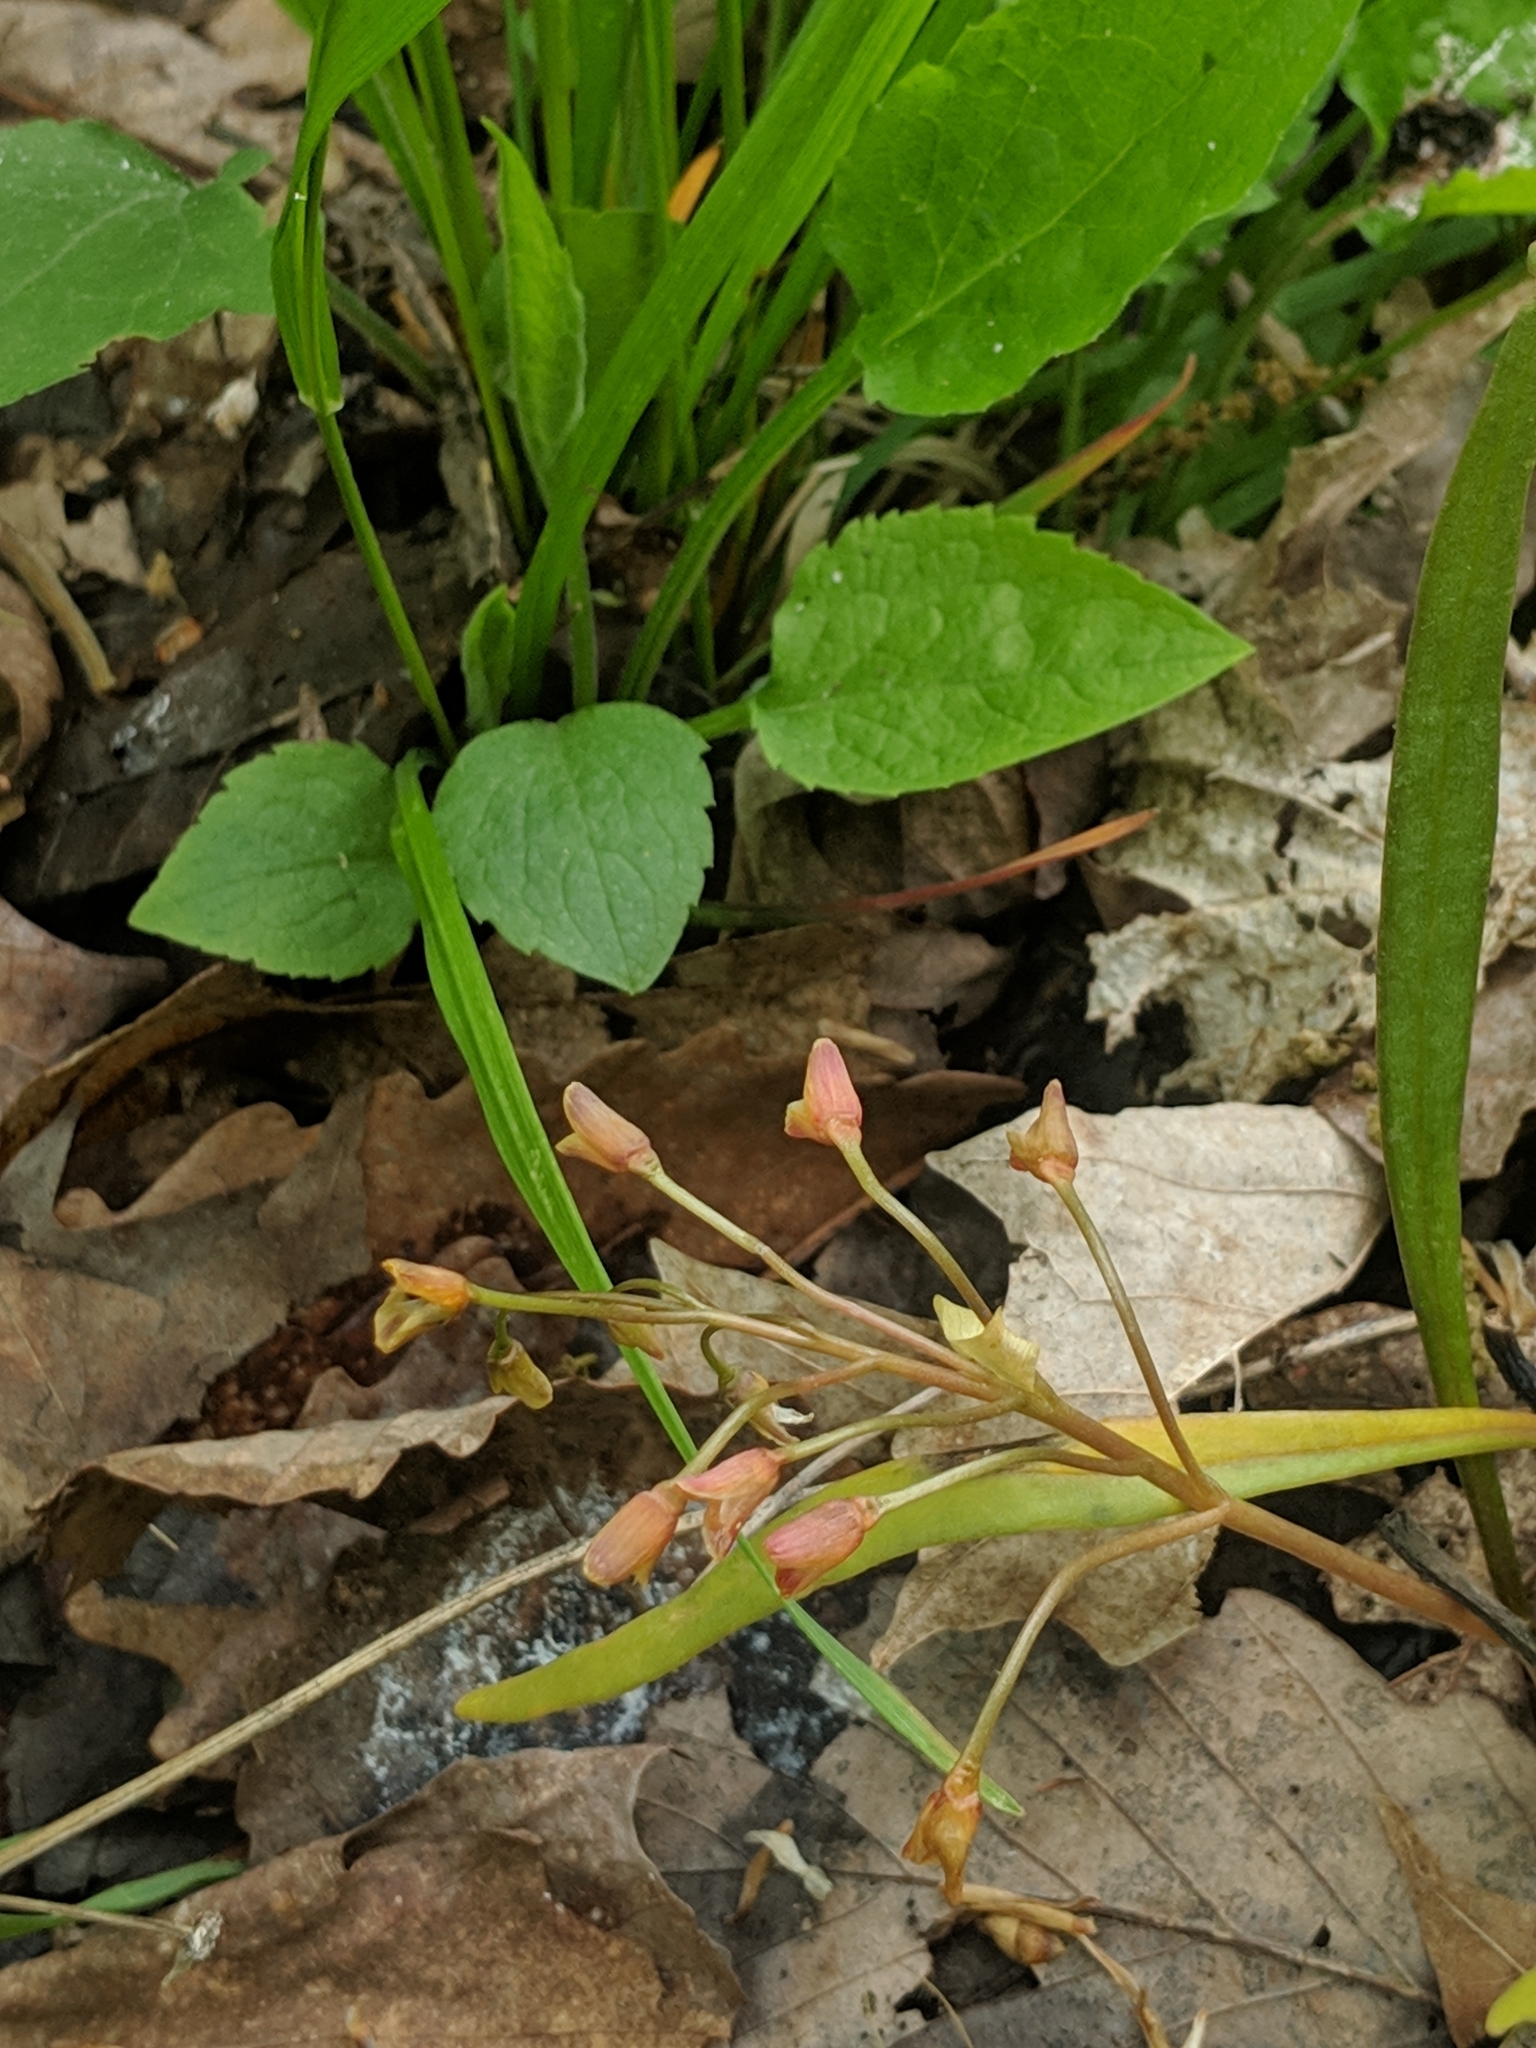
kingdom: Plantae
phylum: Tracheophyta
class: Magnoliopsida
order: Caryophyllales
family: Montiaceae
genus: Claytonia
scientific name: Claytonia virginica
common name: Virginia springbeauty
